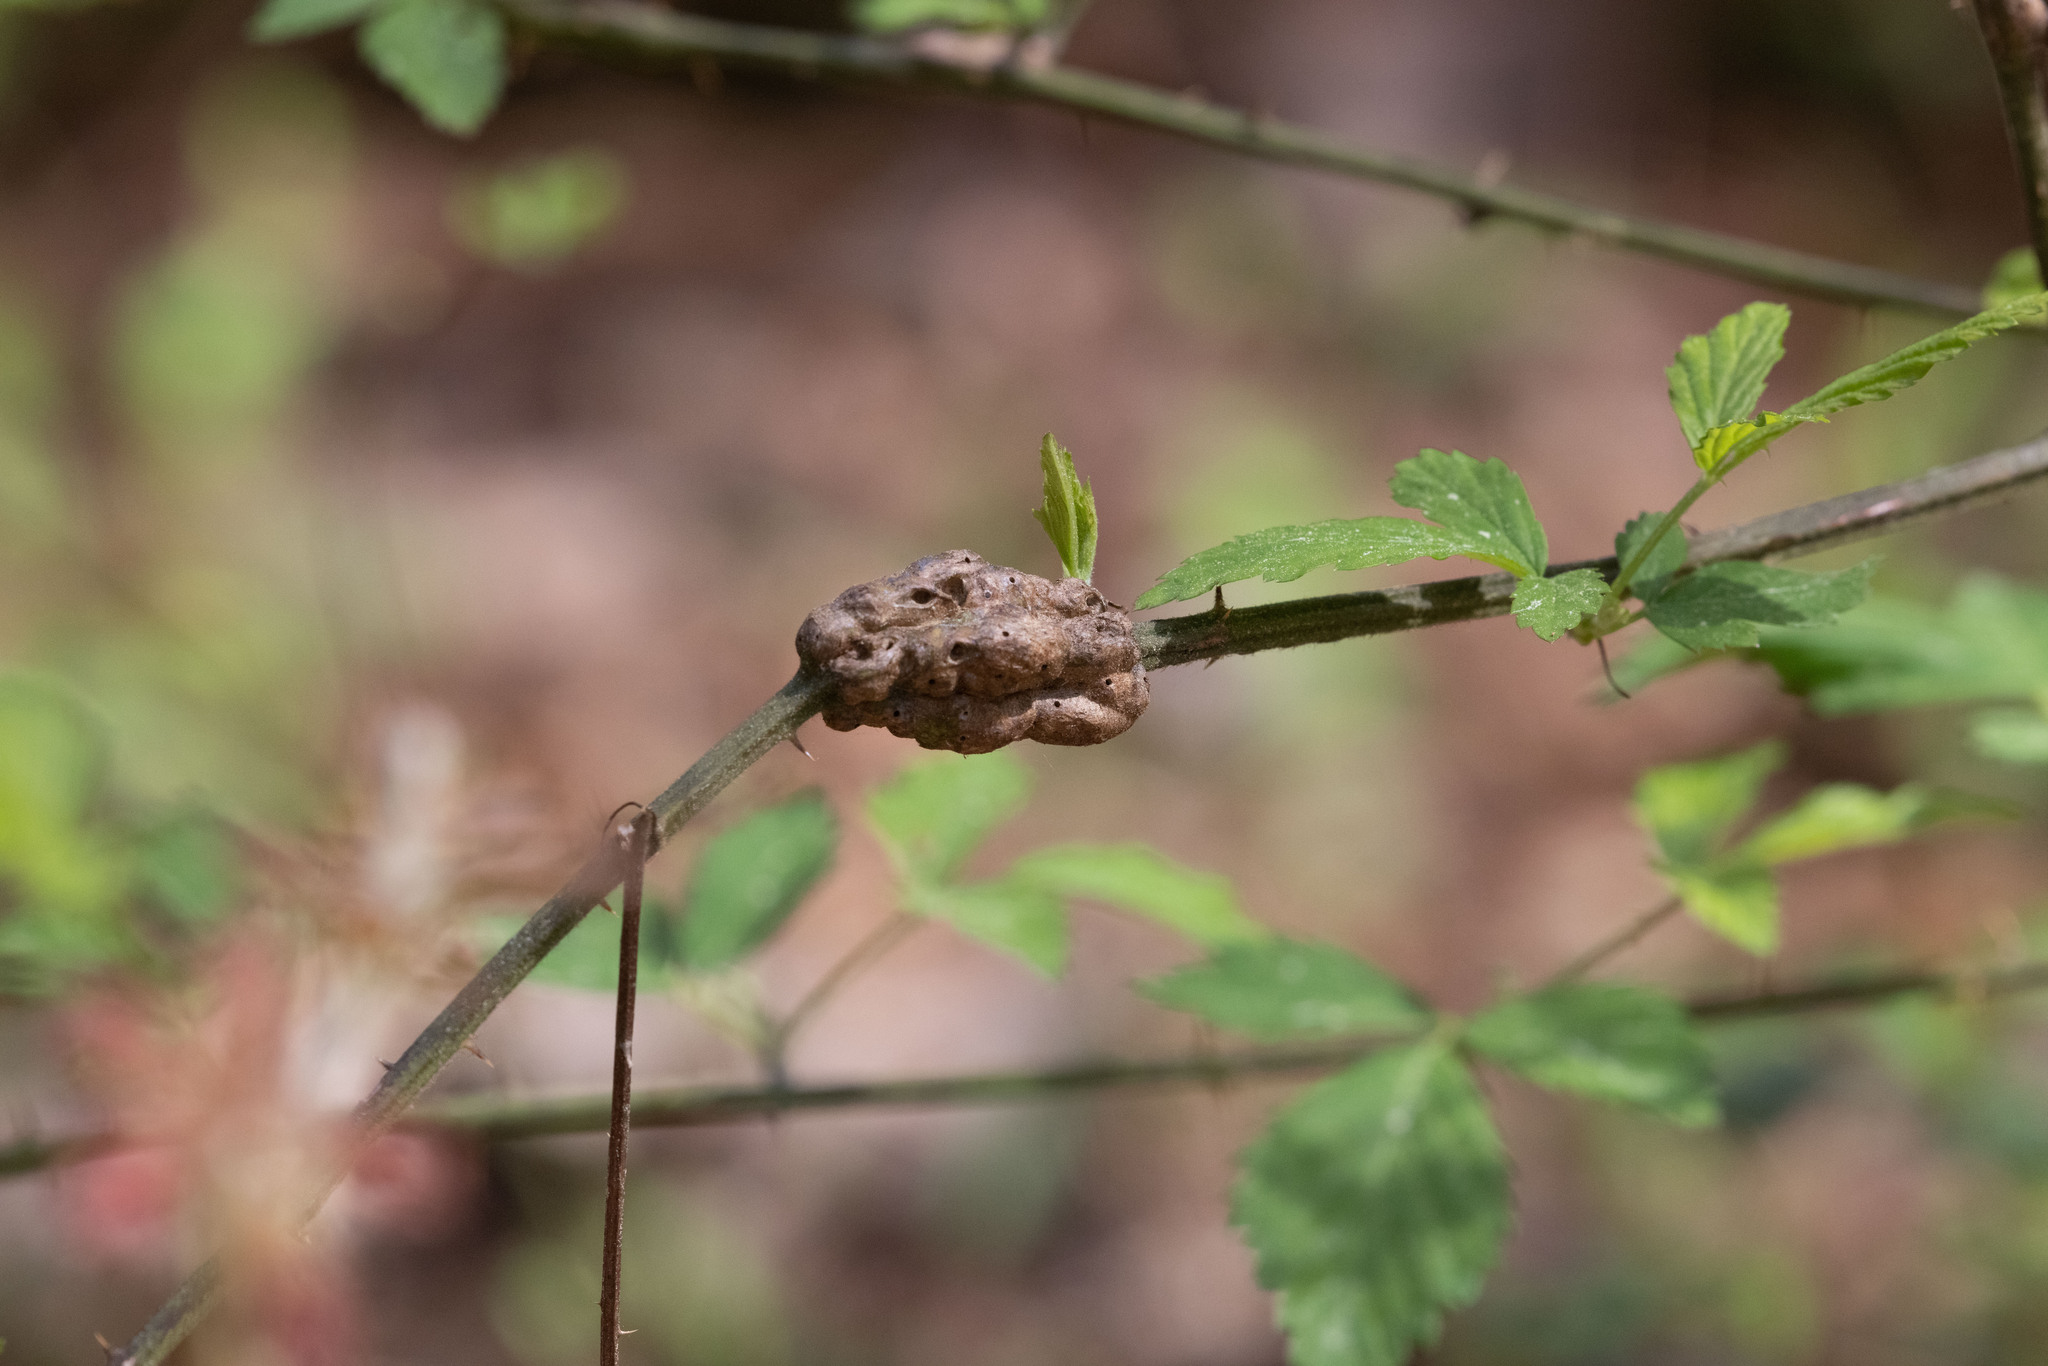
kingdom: Animalia
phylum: Arthropoda
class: Insecta
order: Hymenoptera
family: Cynipidae
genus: Diastrophus
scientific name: Diastrophus
